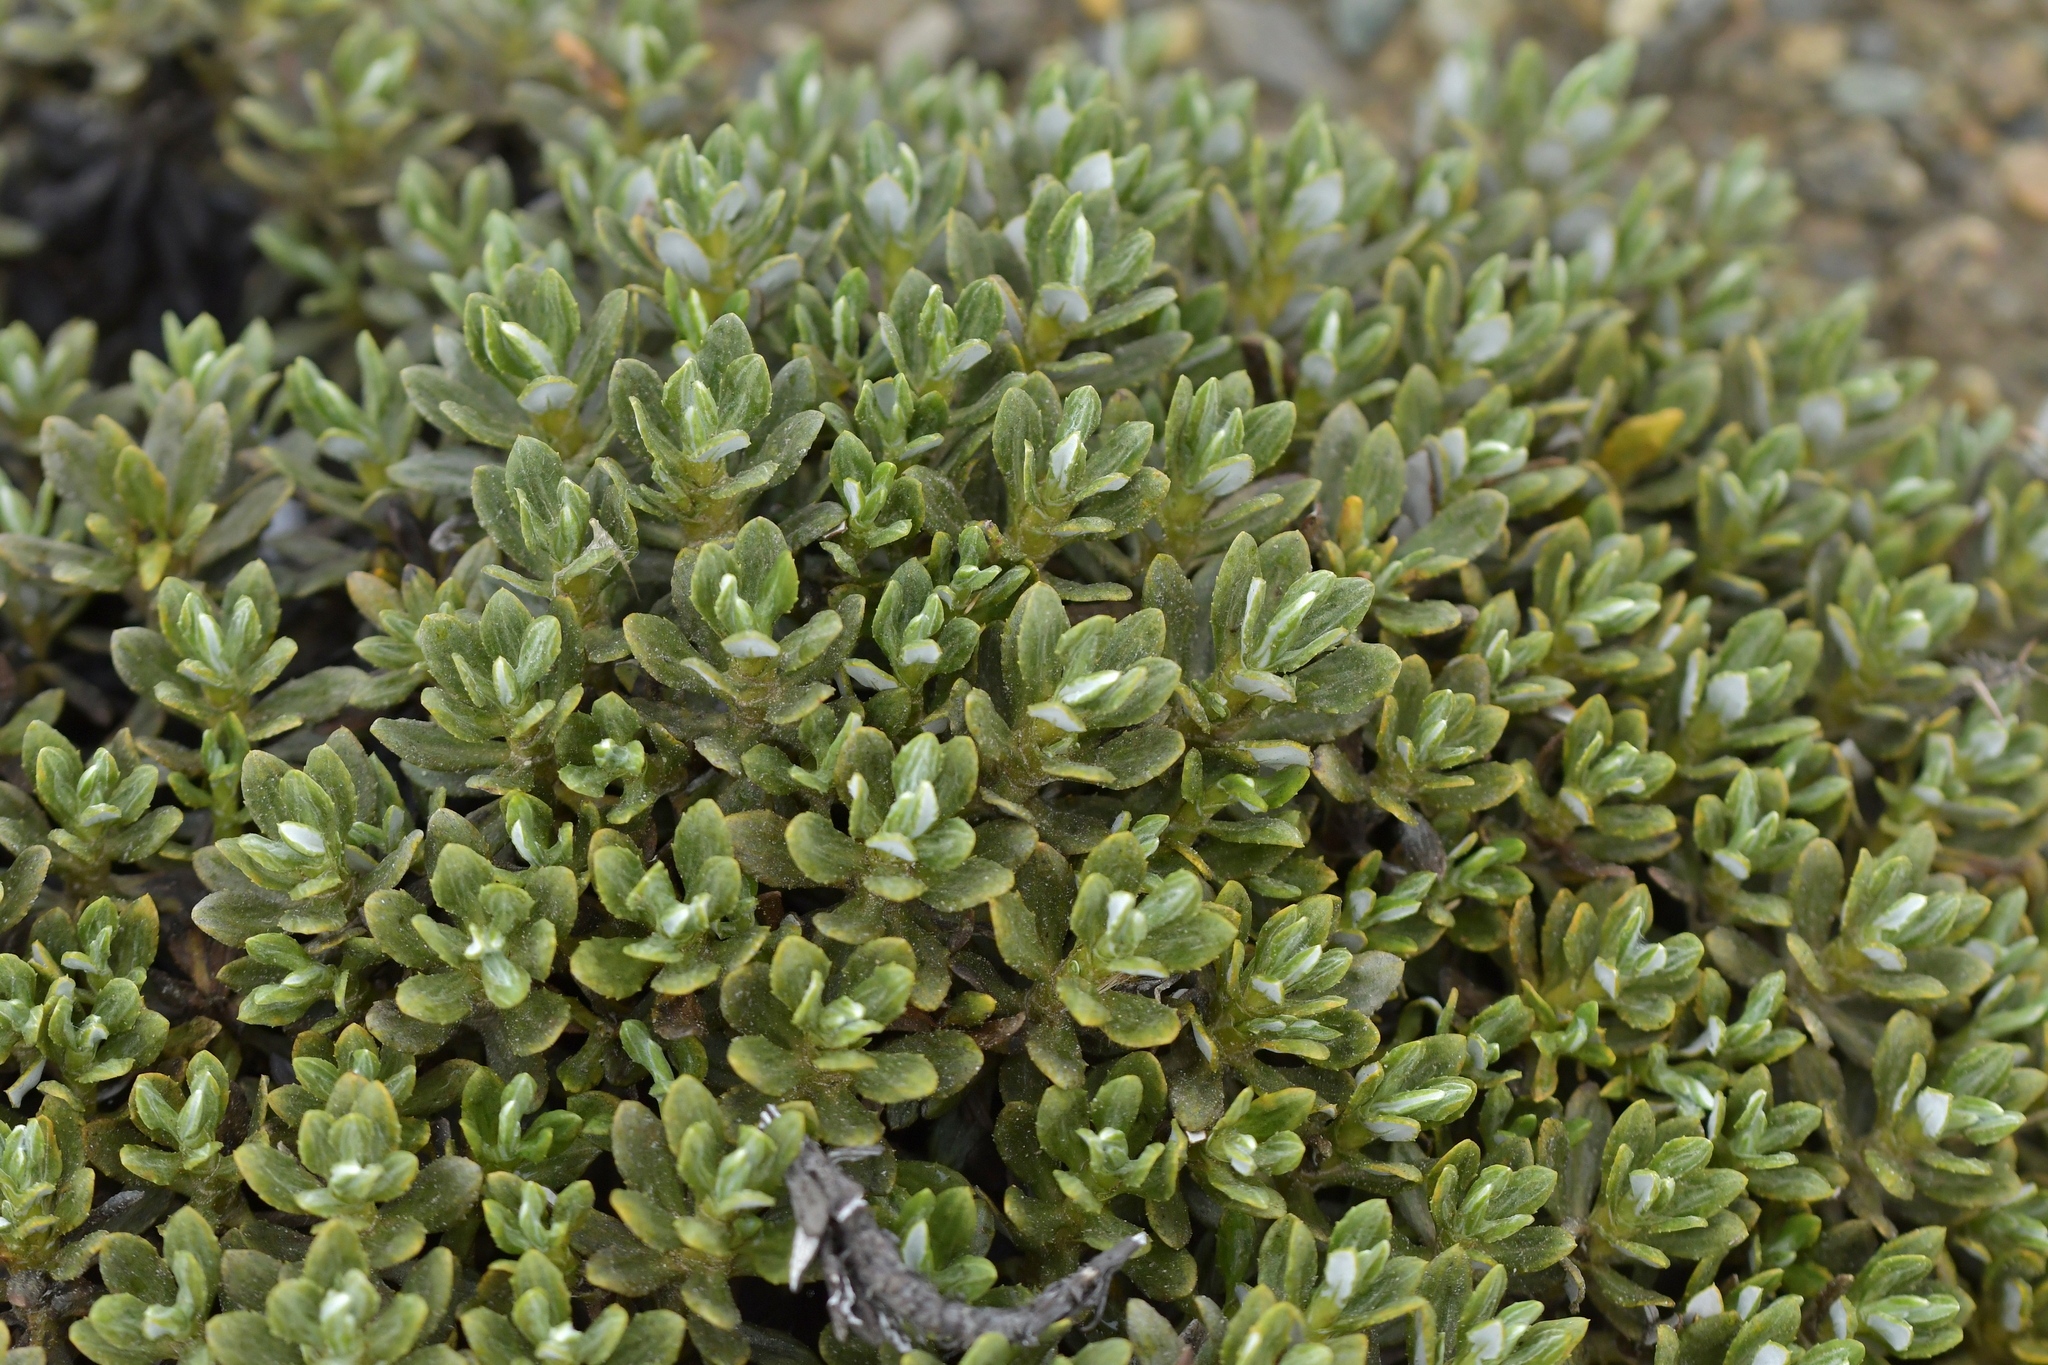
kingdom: Plantae
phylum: Tracheophyta
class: Magnoliopsida
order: Asterales
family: Asteraceae
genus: Celmisia
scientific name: Celmisia brevifolia
